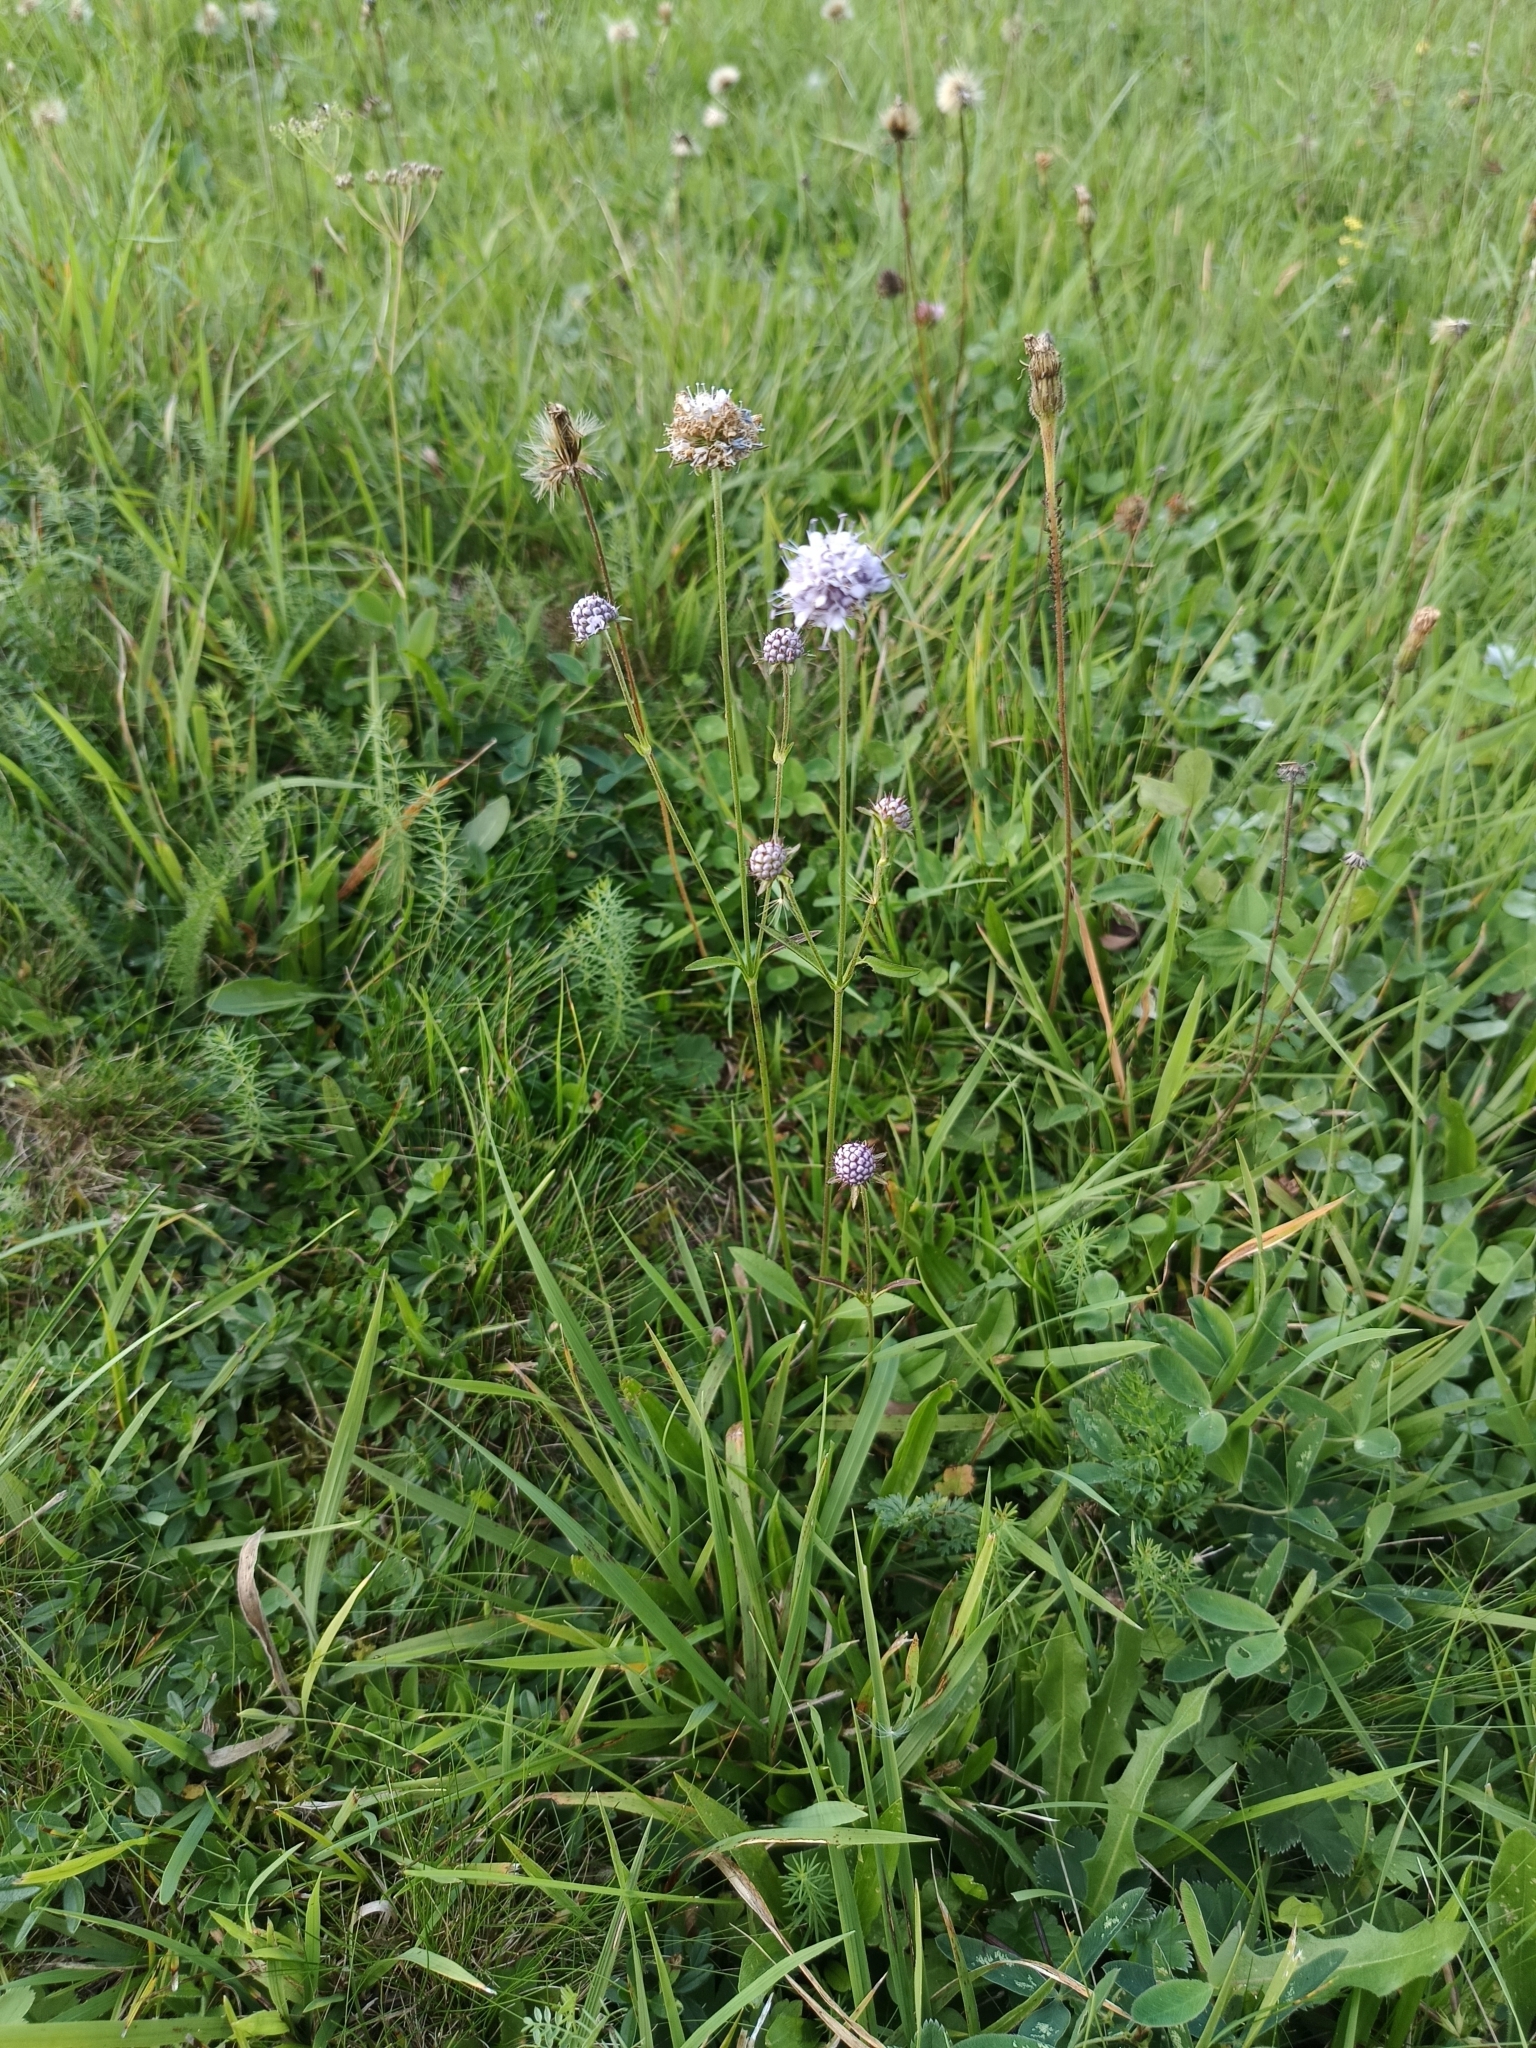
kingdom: Plantae
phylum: Tracheophyta
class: Magnoliopsida
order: Dipsacales
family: Caprifoliaceae
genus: Succisa
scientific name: Succisa pratensis
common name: Devil's-bit
